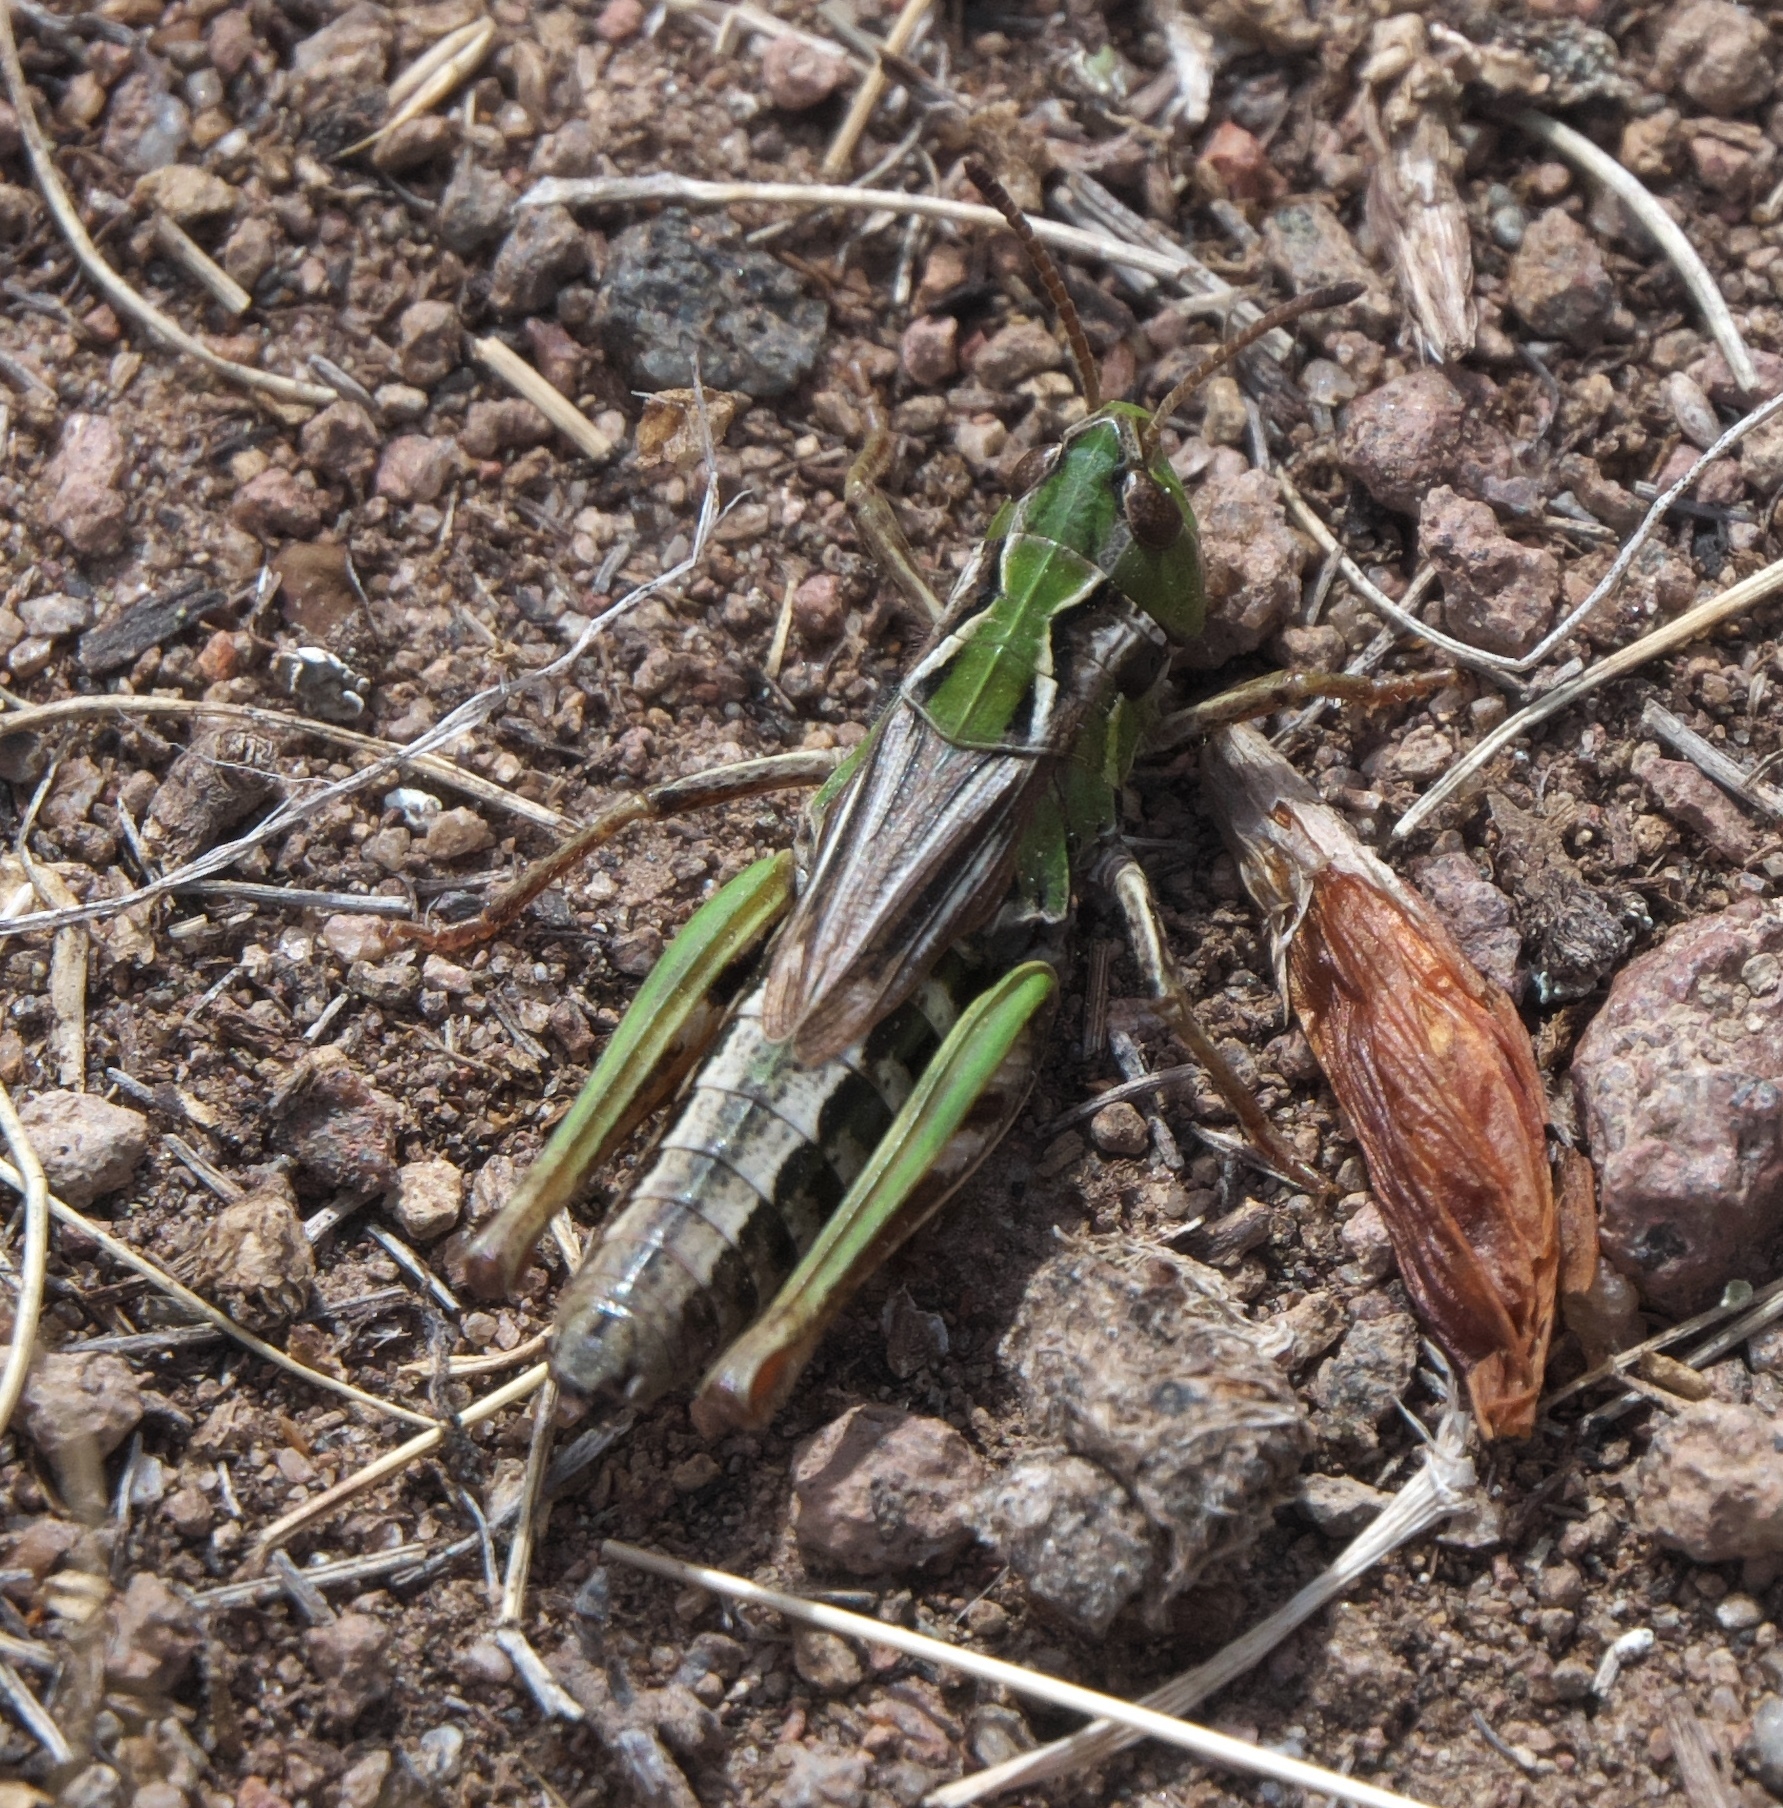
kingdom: Animalia
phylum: Arthropoda
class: Insecta
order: Orthoptera
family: Acrididae
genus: Aeropedellus
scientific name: Aeropedellus clavatus
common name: Clubhorned grasshopper
